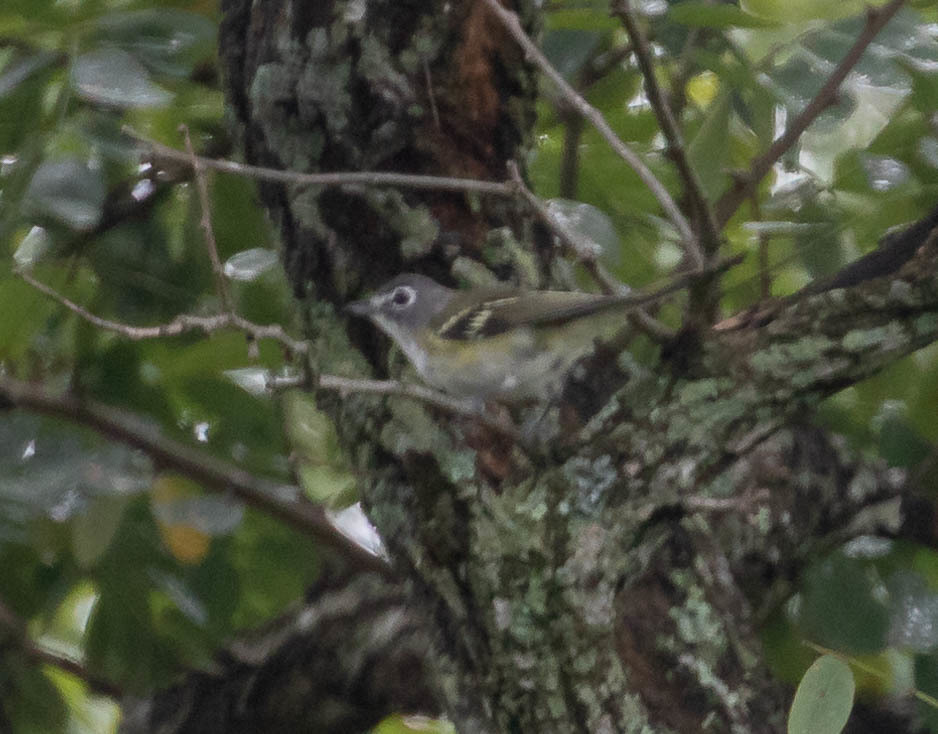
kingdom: Animalia
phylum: Chordata
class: Aves
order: Passeriformes
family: Vireonidae
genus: Vireo
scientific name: Vireo solitarius
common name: Blue-headed vireo
